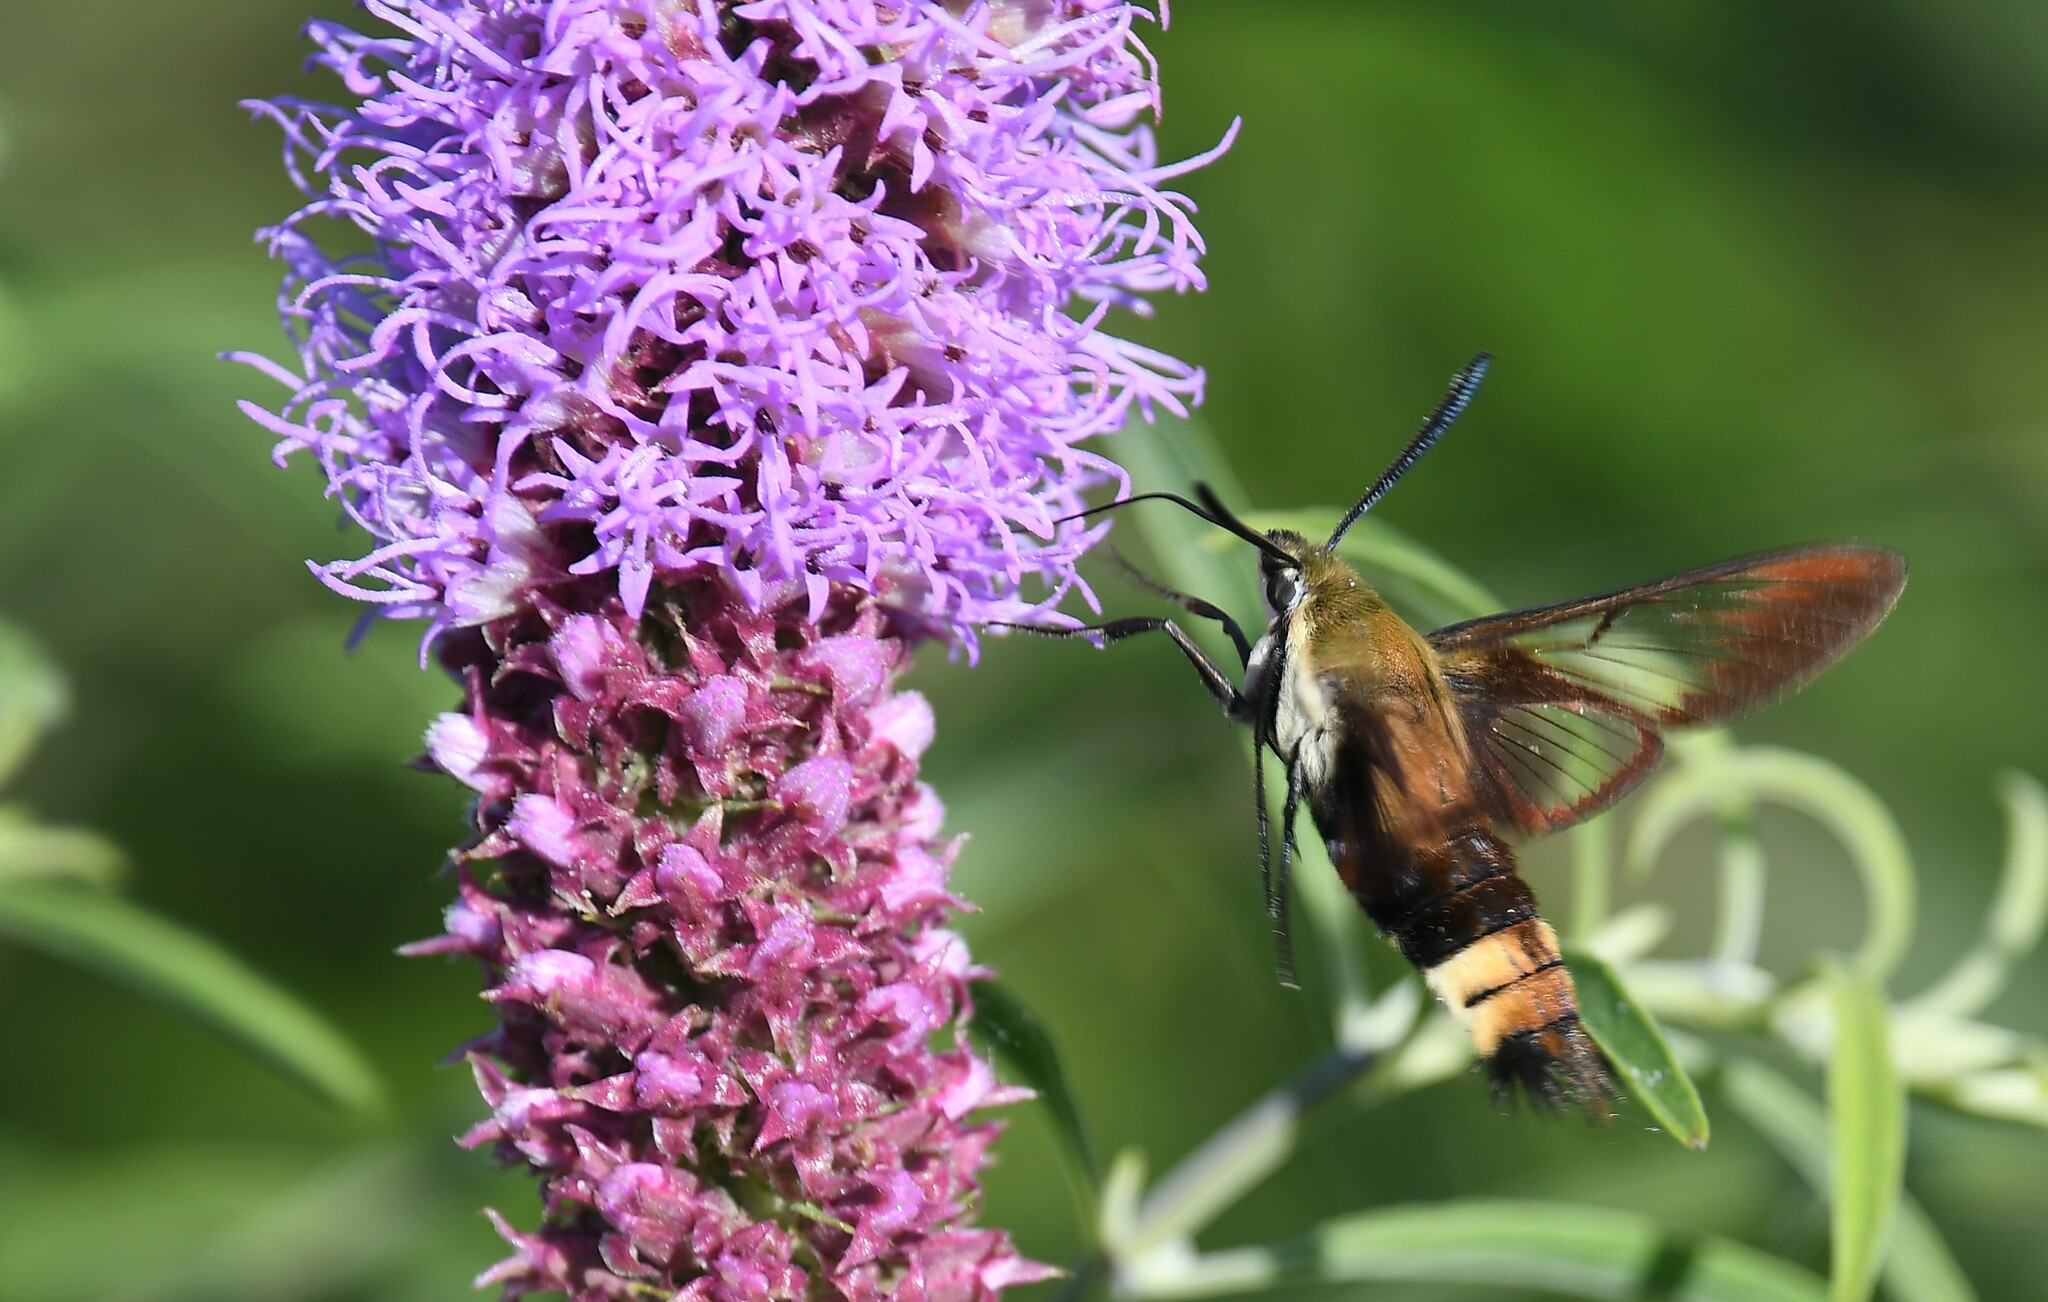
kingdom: Animalia
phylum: Arthropoda
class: Insecta
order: Lepidoptera
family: Sphingidae
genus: Hemaris
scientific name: Hemaris diffinis
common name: Bumblebee moth
